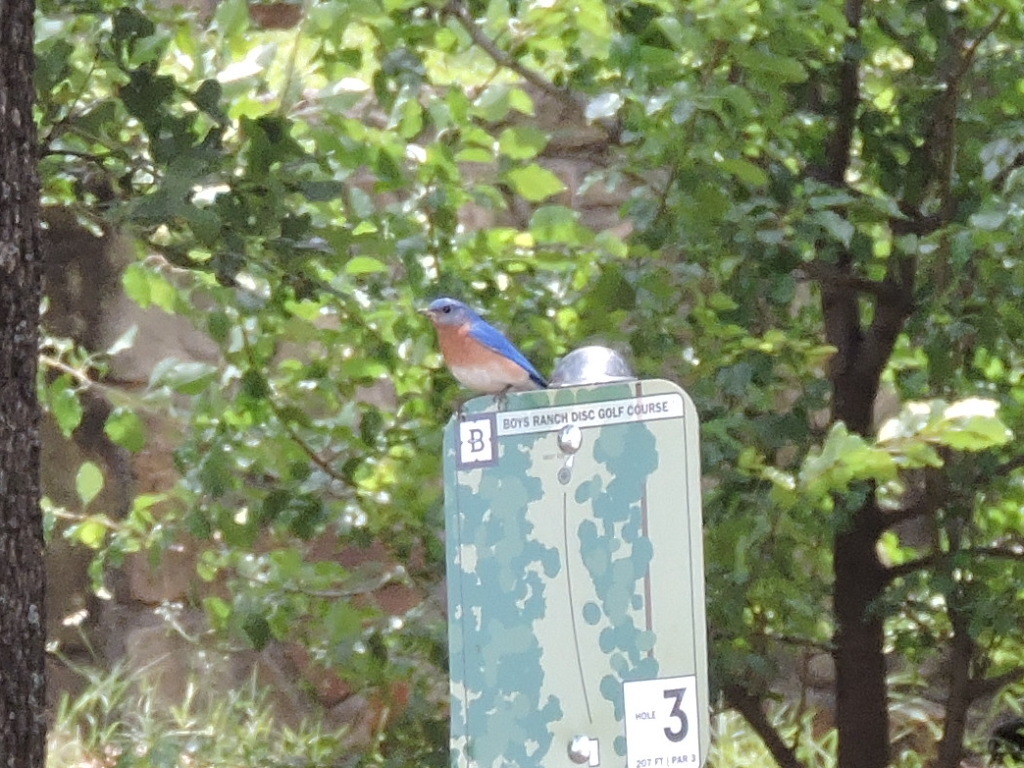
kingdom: Animalia
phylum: Chordata
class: Aves
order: Passeriformes
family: Turdidae
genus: Sialia
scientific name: Sialia sialis
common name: Eastern bluebird
